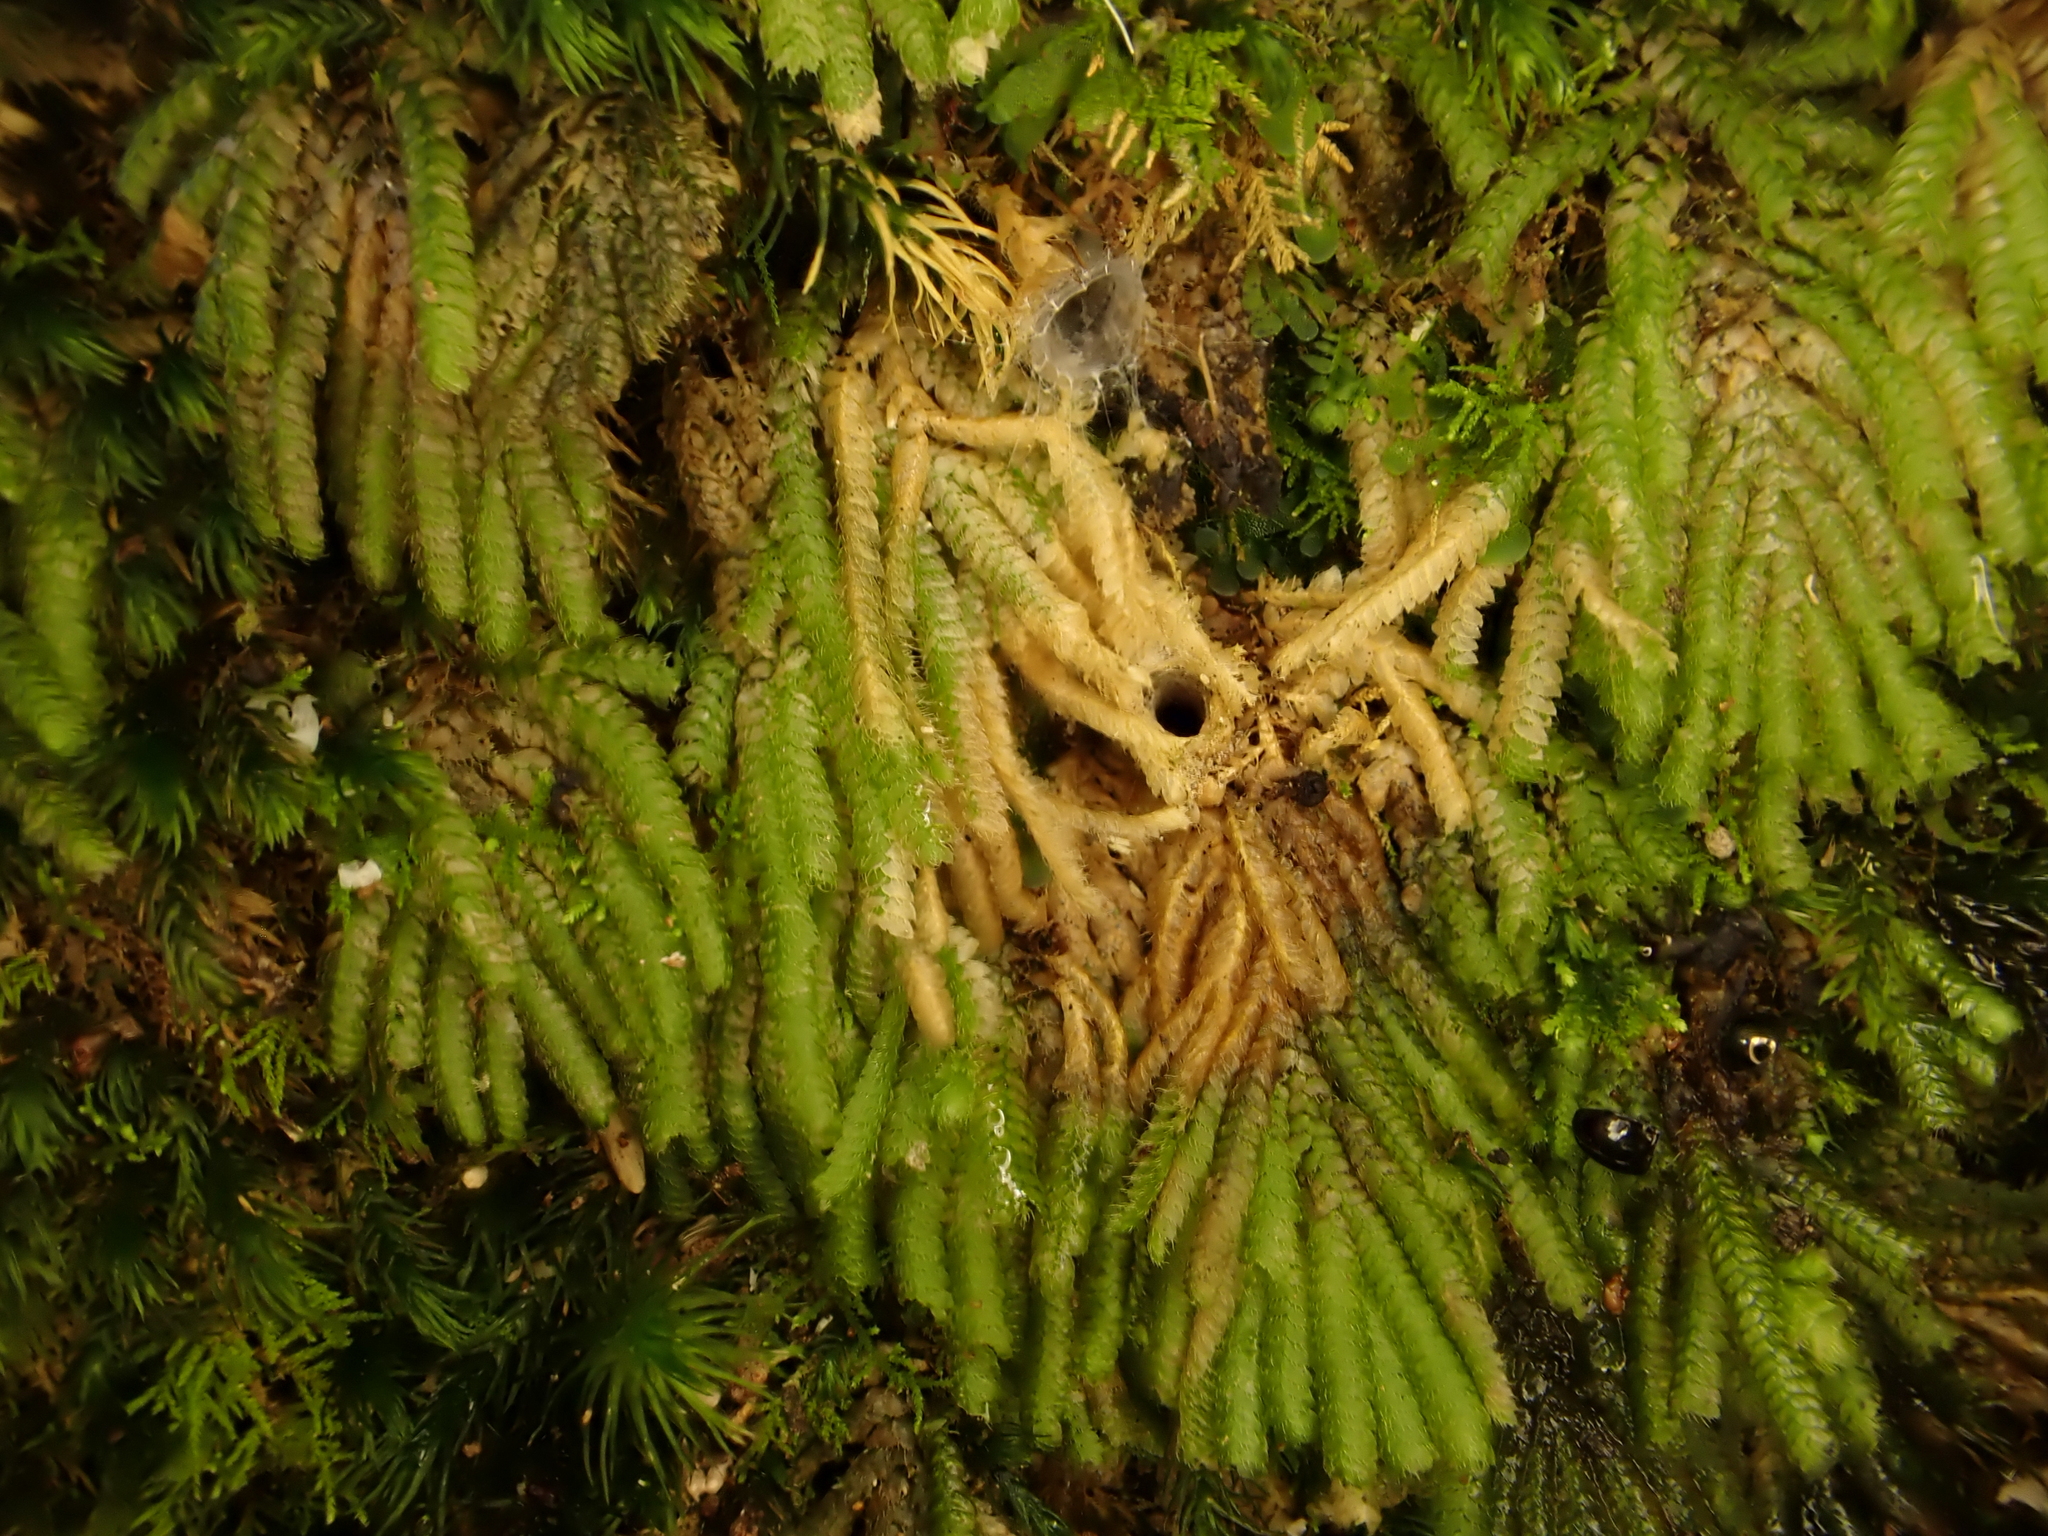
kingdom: Plantae
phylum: Bryophyta
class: Bryopsida
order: Hypopterygiales
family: Hypopterygiaceae
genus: Catharomnion
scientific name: Catharomnion ciliatum
